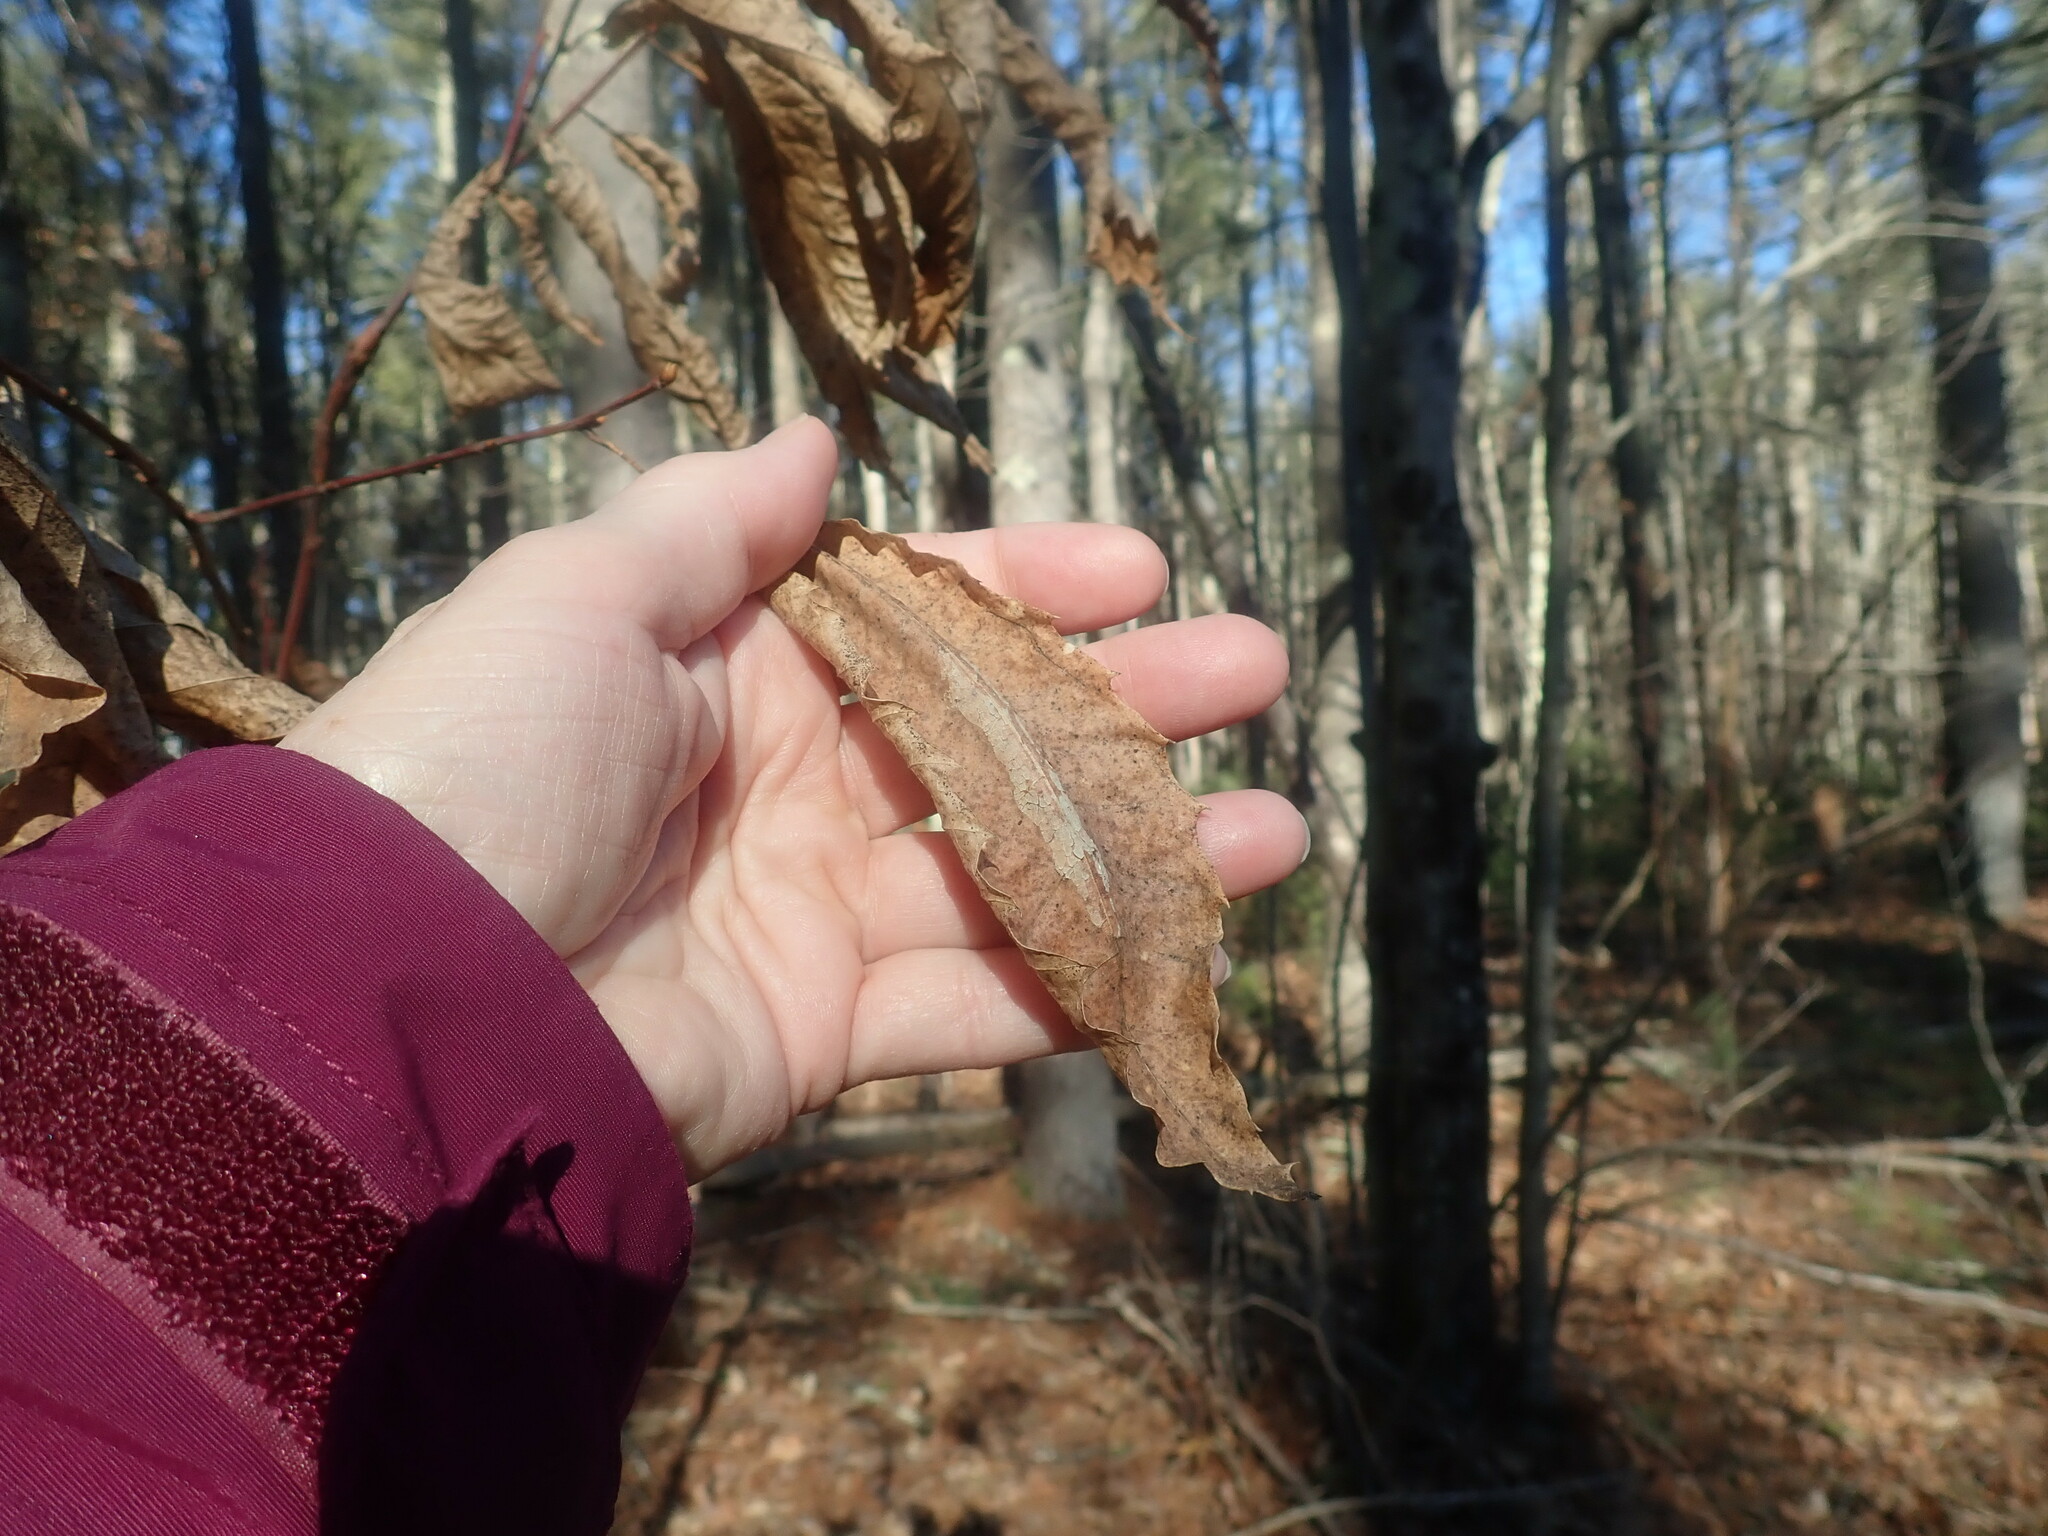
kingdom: Plantae
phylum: Tracheophyta
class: Magnoliopsida
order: Fagales
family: Fagaceae
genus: Castanea
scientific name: Castanea dentata
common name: American chestnut
